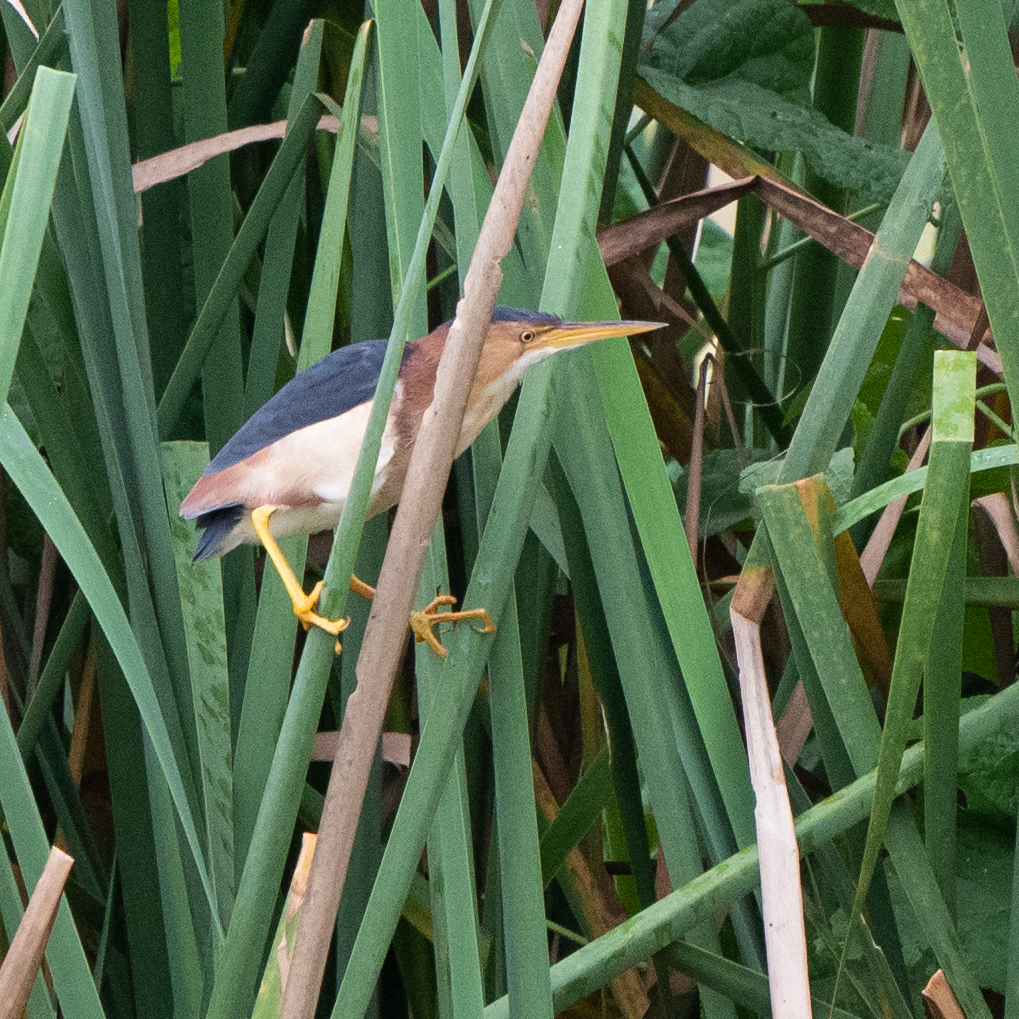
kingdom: Animalia
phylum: Chordata
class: Aves
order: Pelecaniformes
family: Ardeidae
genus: Ixobrychus
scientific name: Ixobrychus exilis
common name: Least bittern
